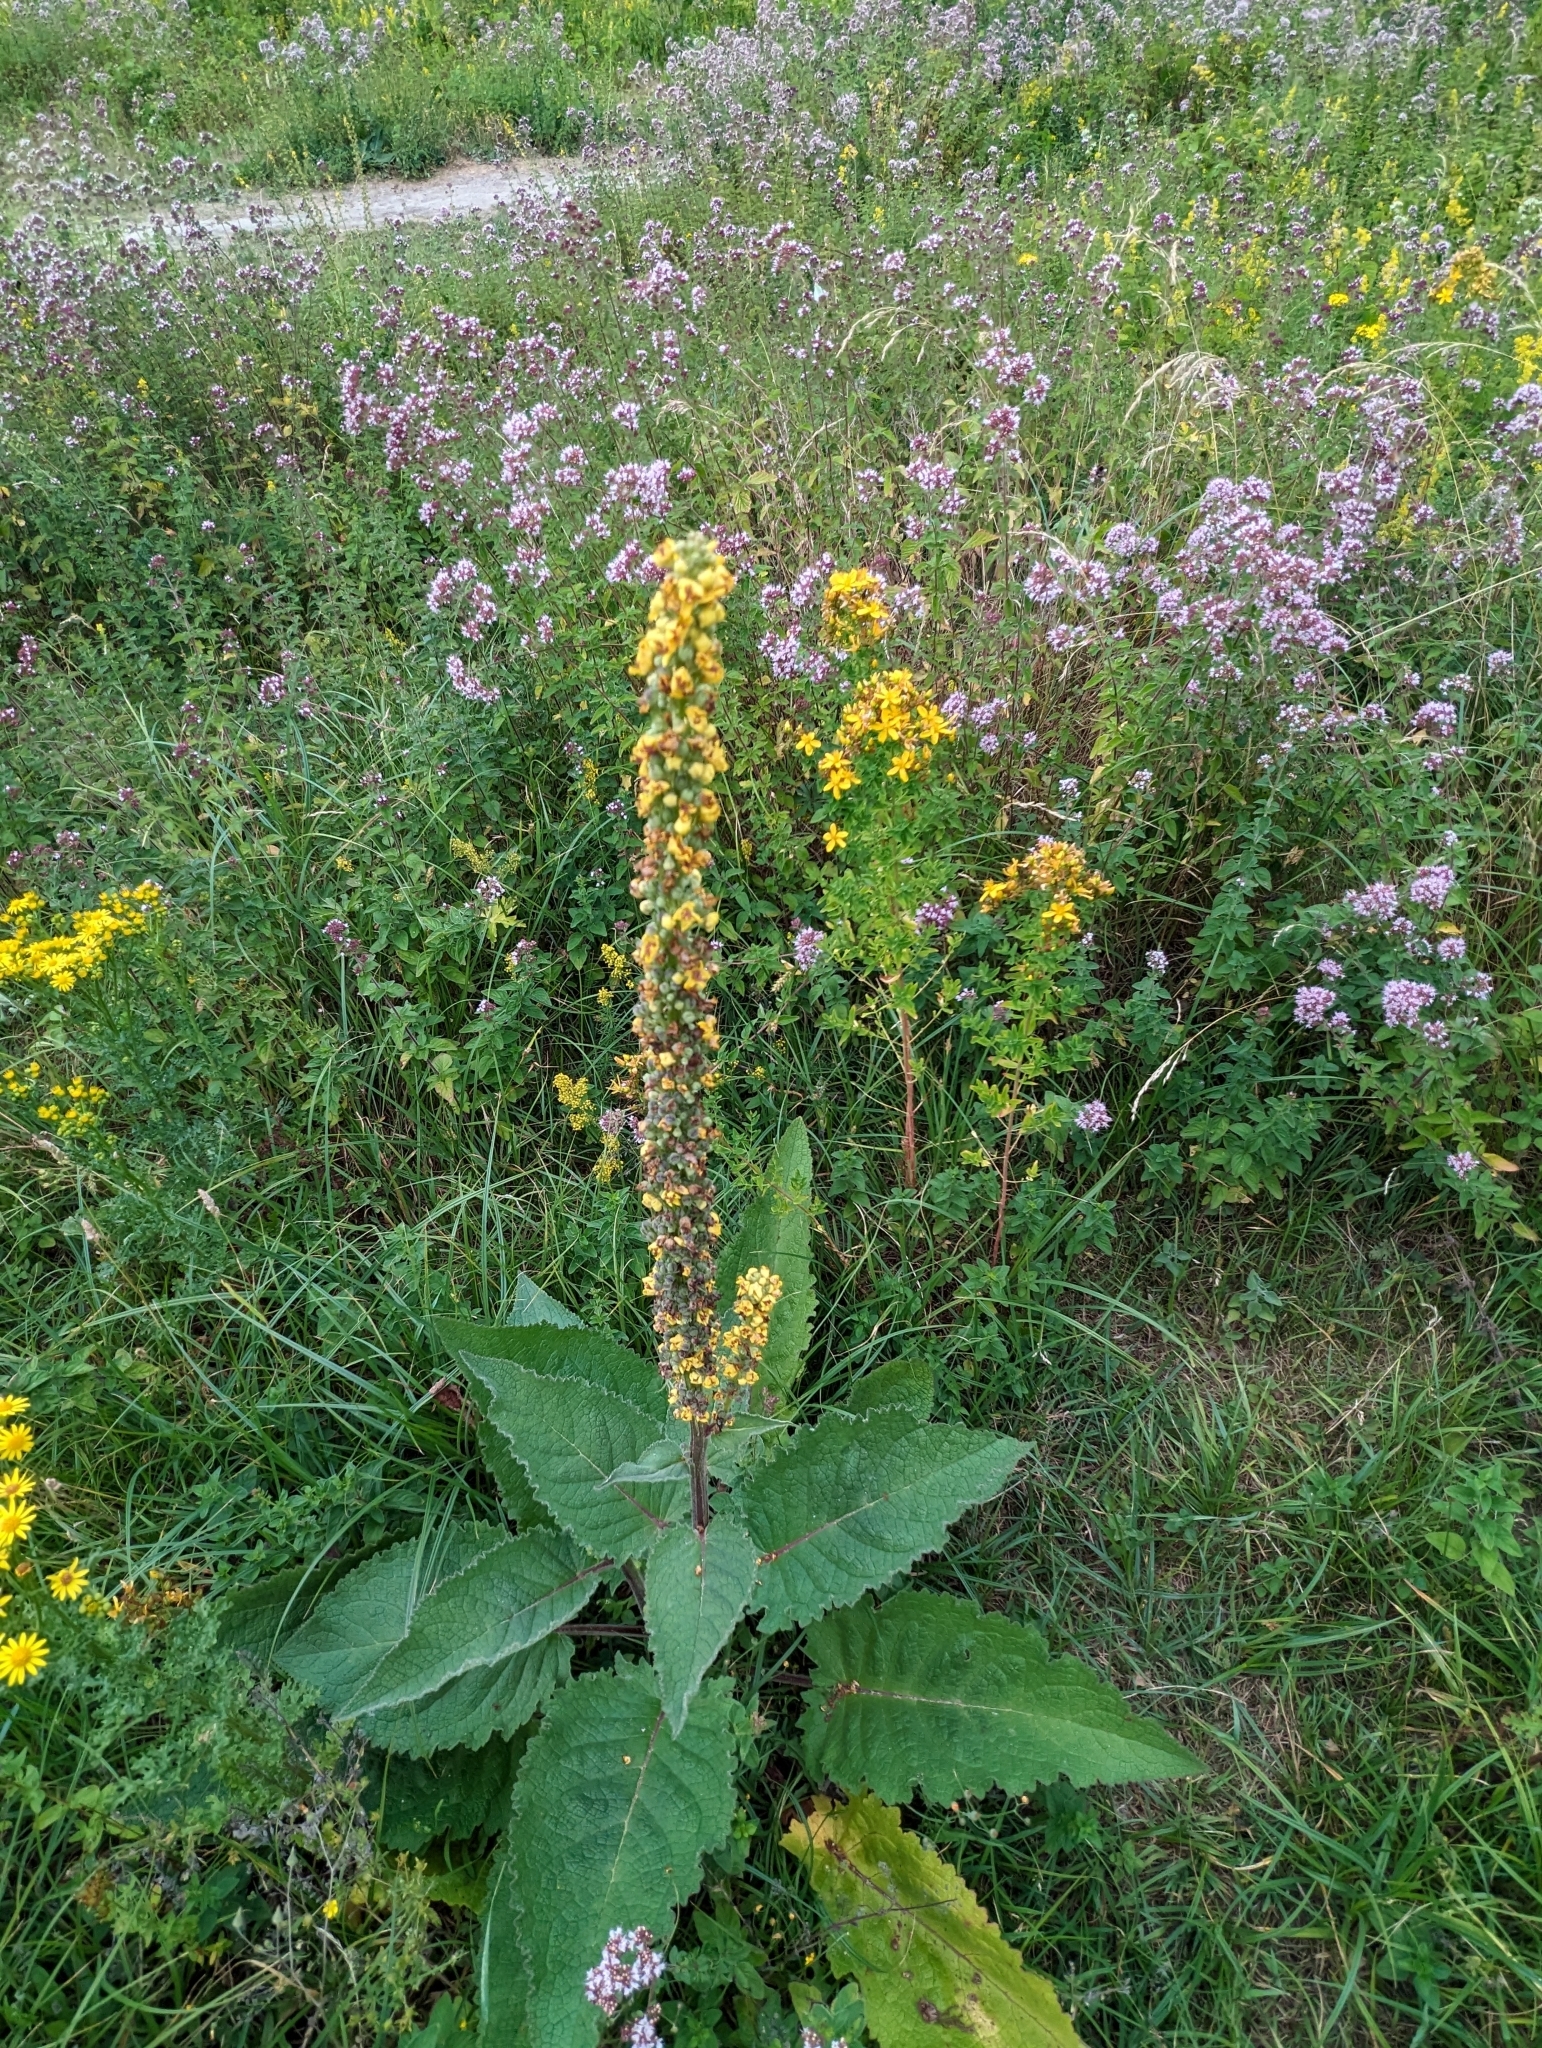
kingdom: Plantae
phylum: Tracheophyta
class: Magnoliopsida
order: Lamiales
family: Scrophulariaceae
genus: Verbascum
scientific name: Verbascum nigrum
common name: Dark mullein
